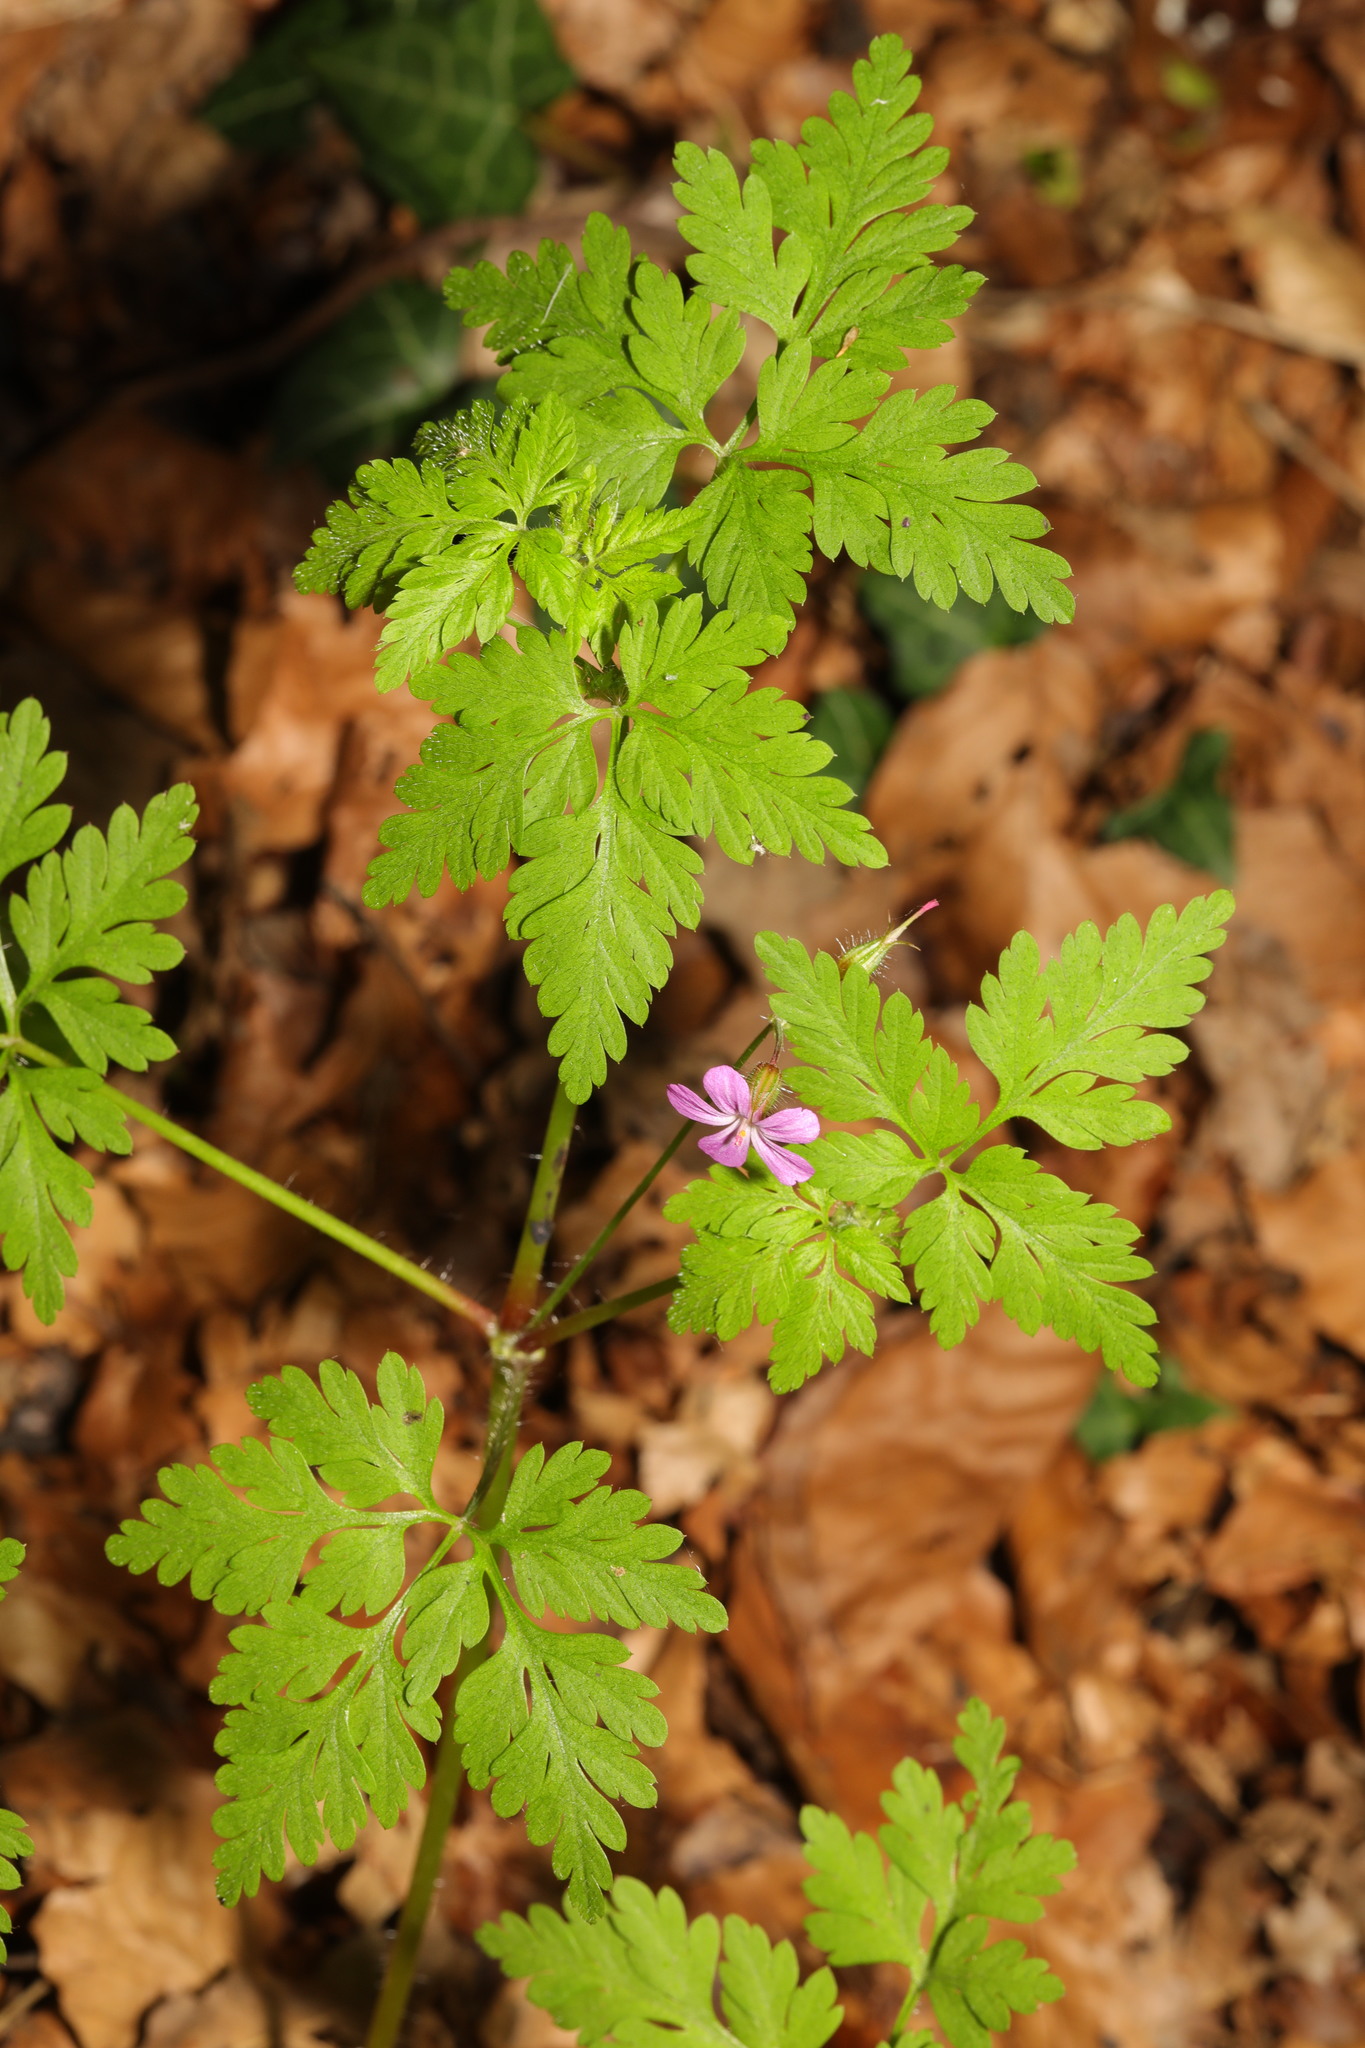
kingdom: Plantae
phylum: Tracheophyta
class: Magnoliopsida
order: Geraniales
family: Geraniaceae
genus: Geranium
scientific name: Geranium robertianum
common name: Herb-robert
